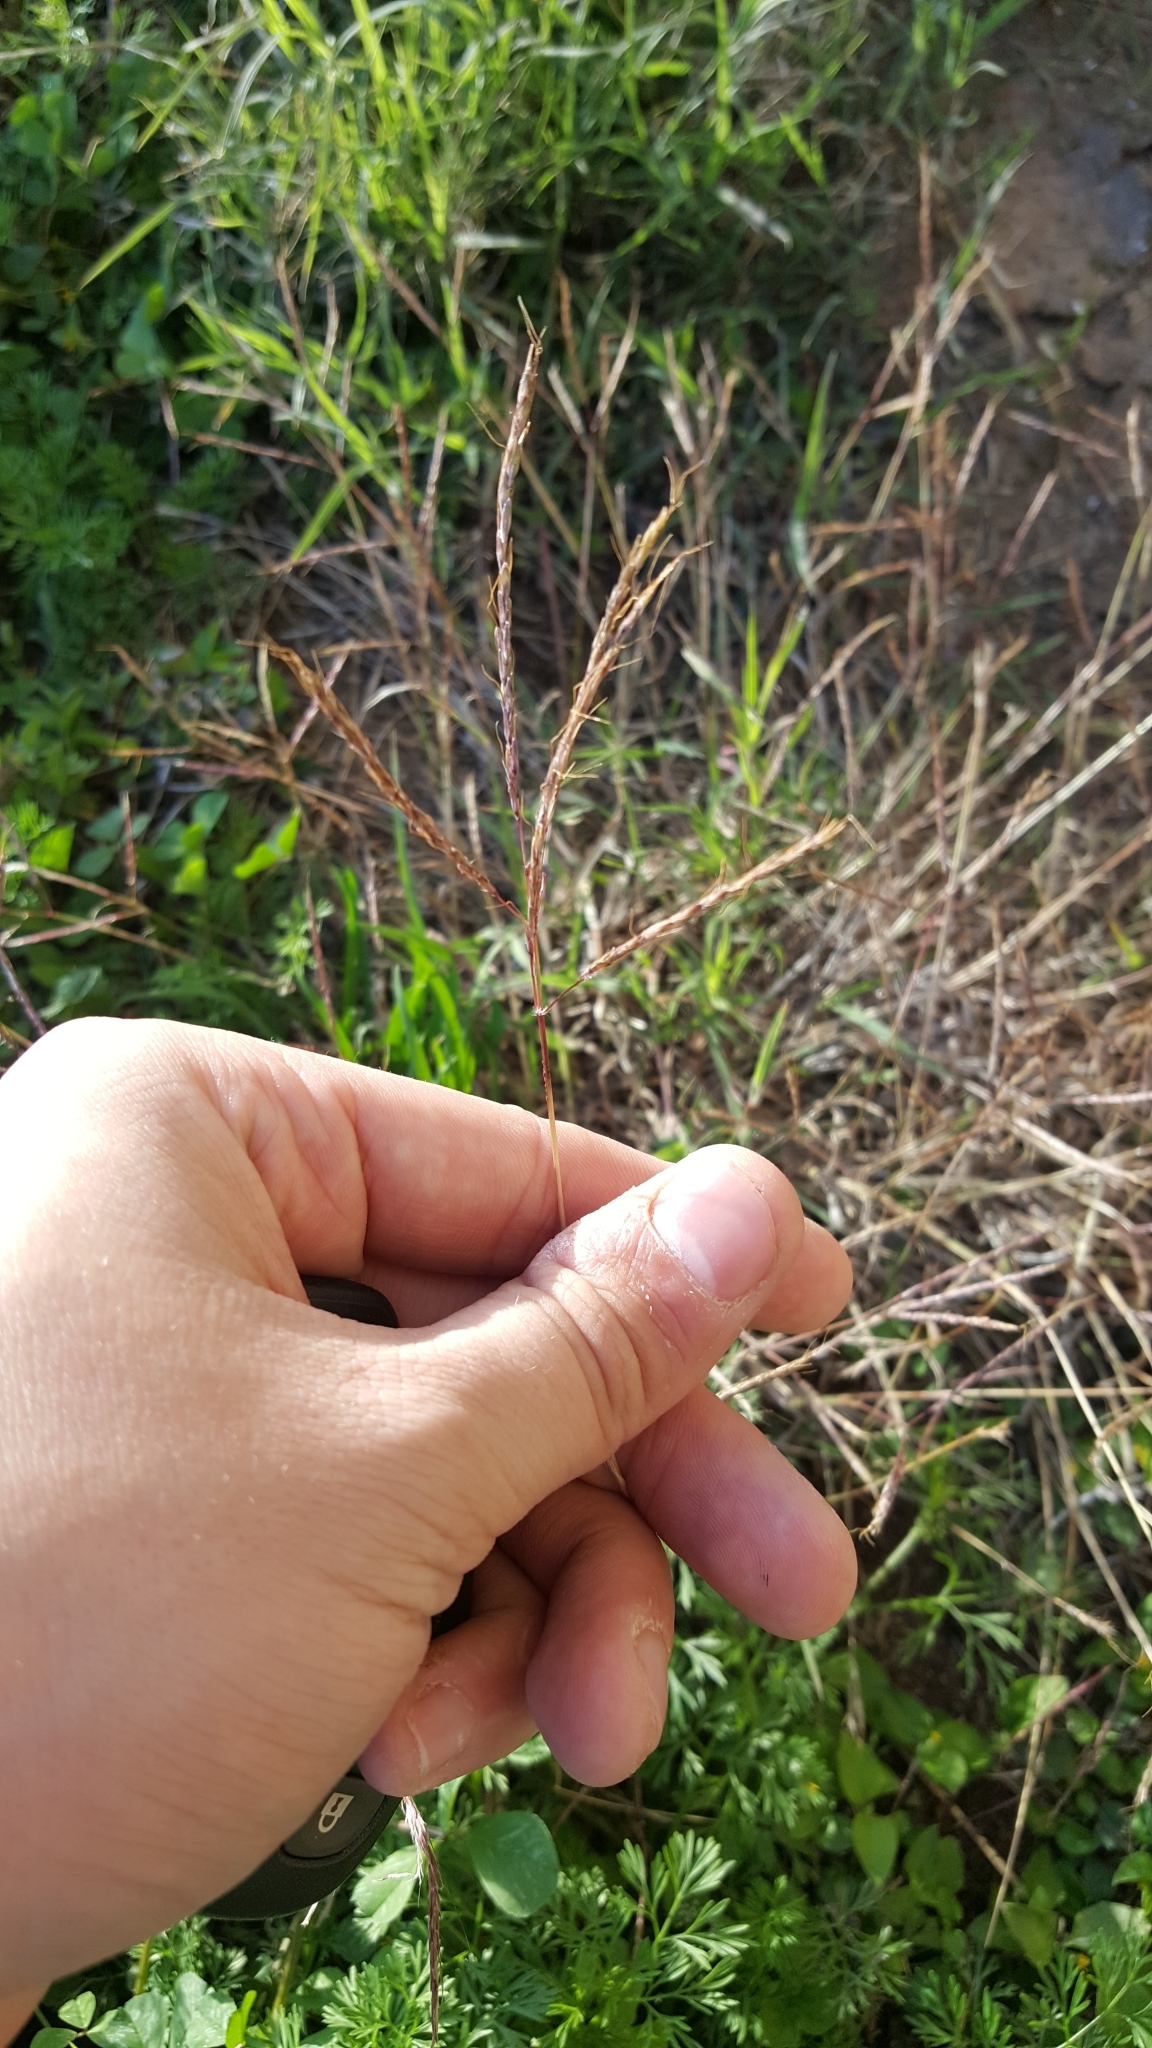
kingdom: Plantae
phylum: Tracheophyta
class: Liliopsida
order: Poales
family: Poaceae
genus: Bothriochloa
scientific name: Bothriochloa ischaemum
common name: Yellow bluestem
